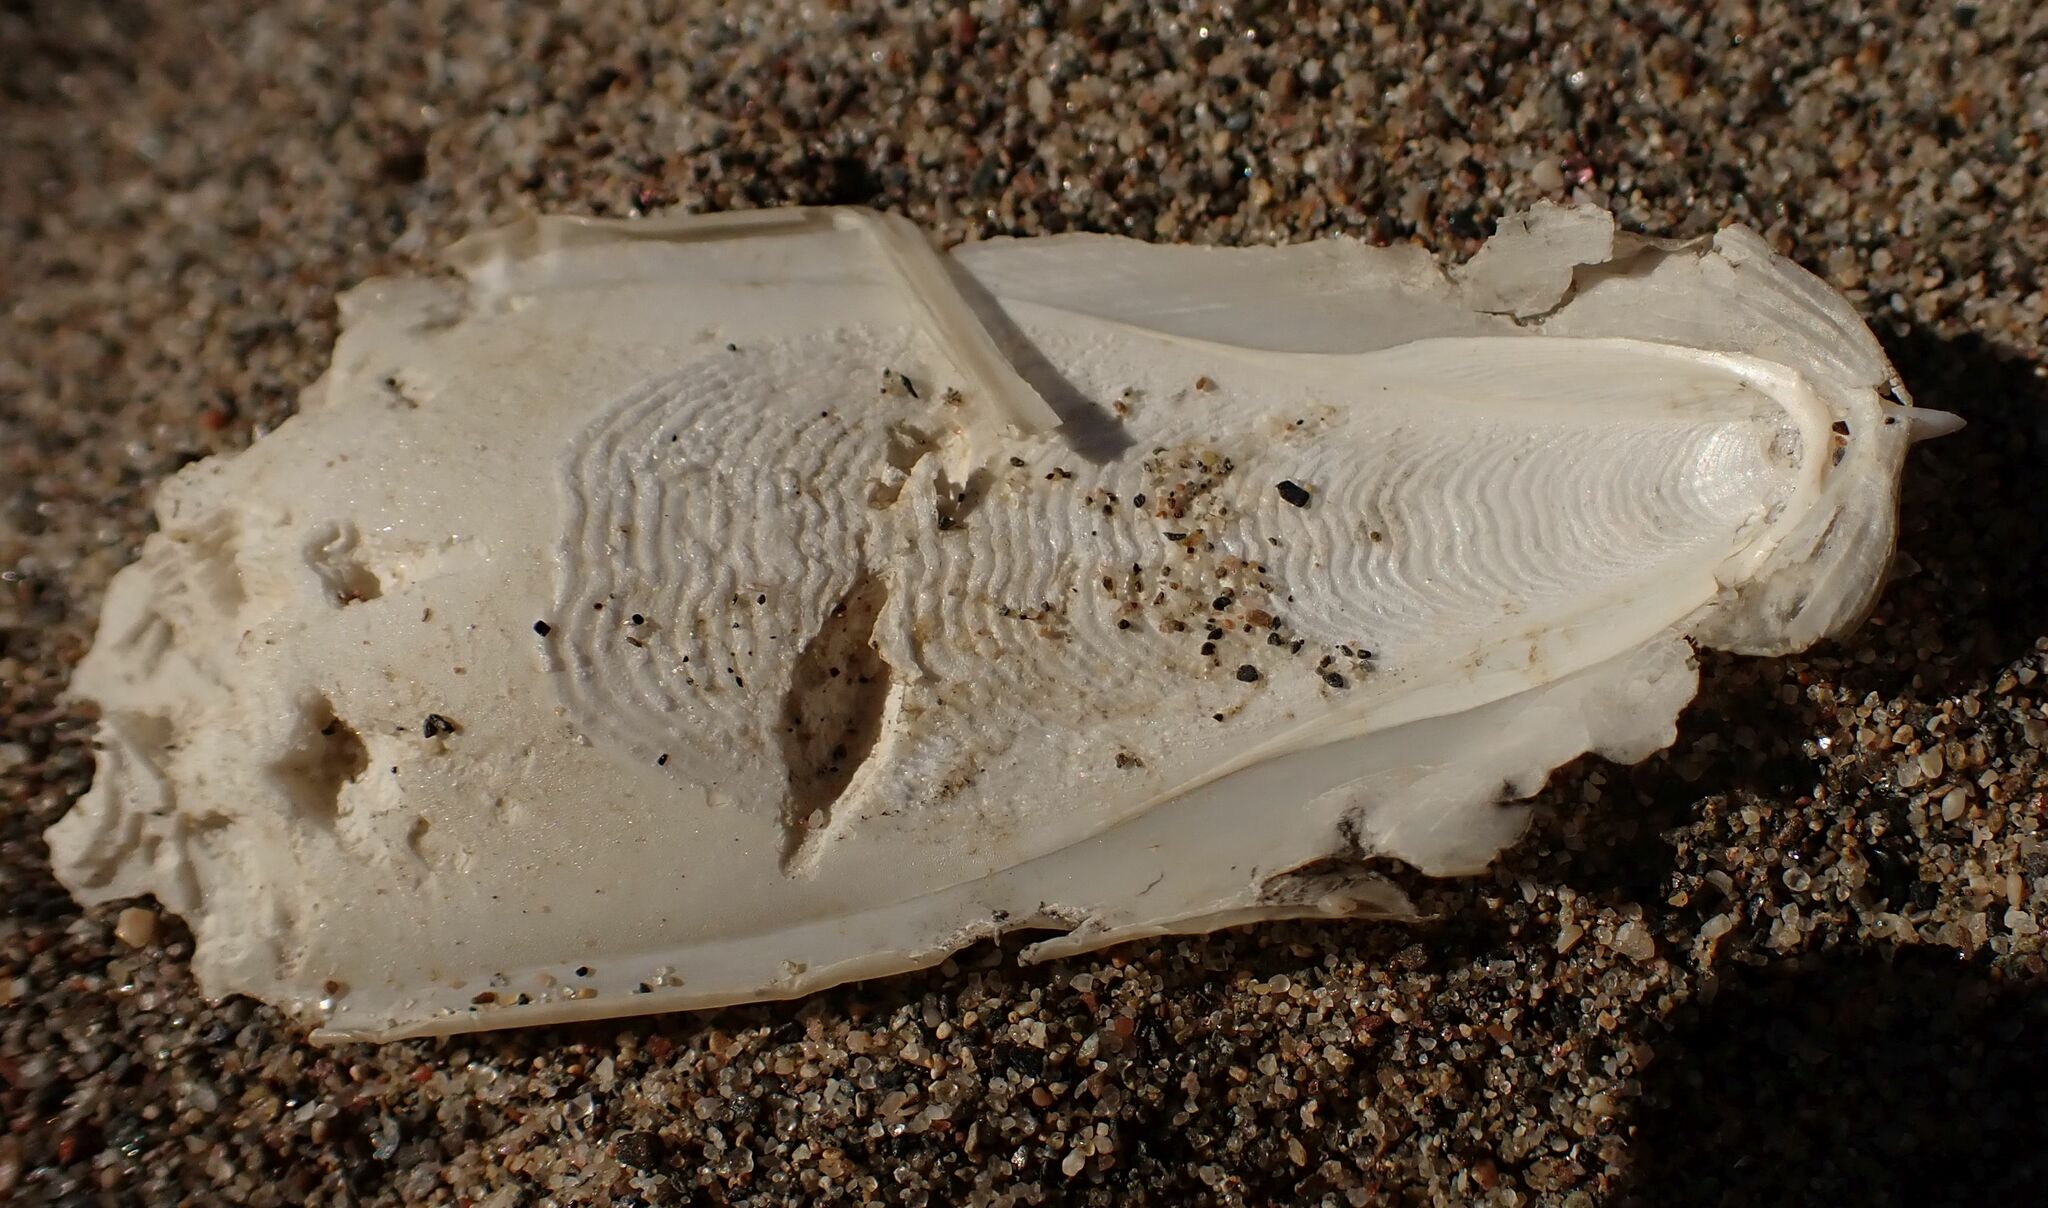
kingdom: Animalia
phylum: Mollusca
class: Cephalopoda
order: Sepiida
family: Sepiidae
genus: Sepia
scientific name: Sepia officinalis
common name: Common cuttlefish
